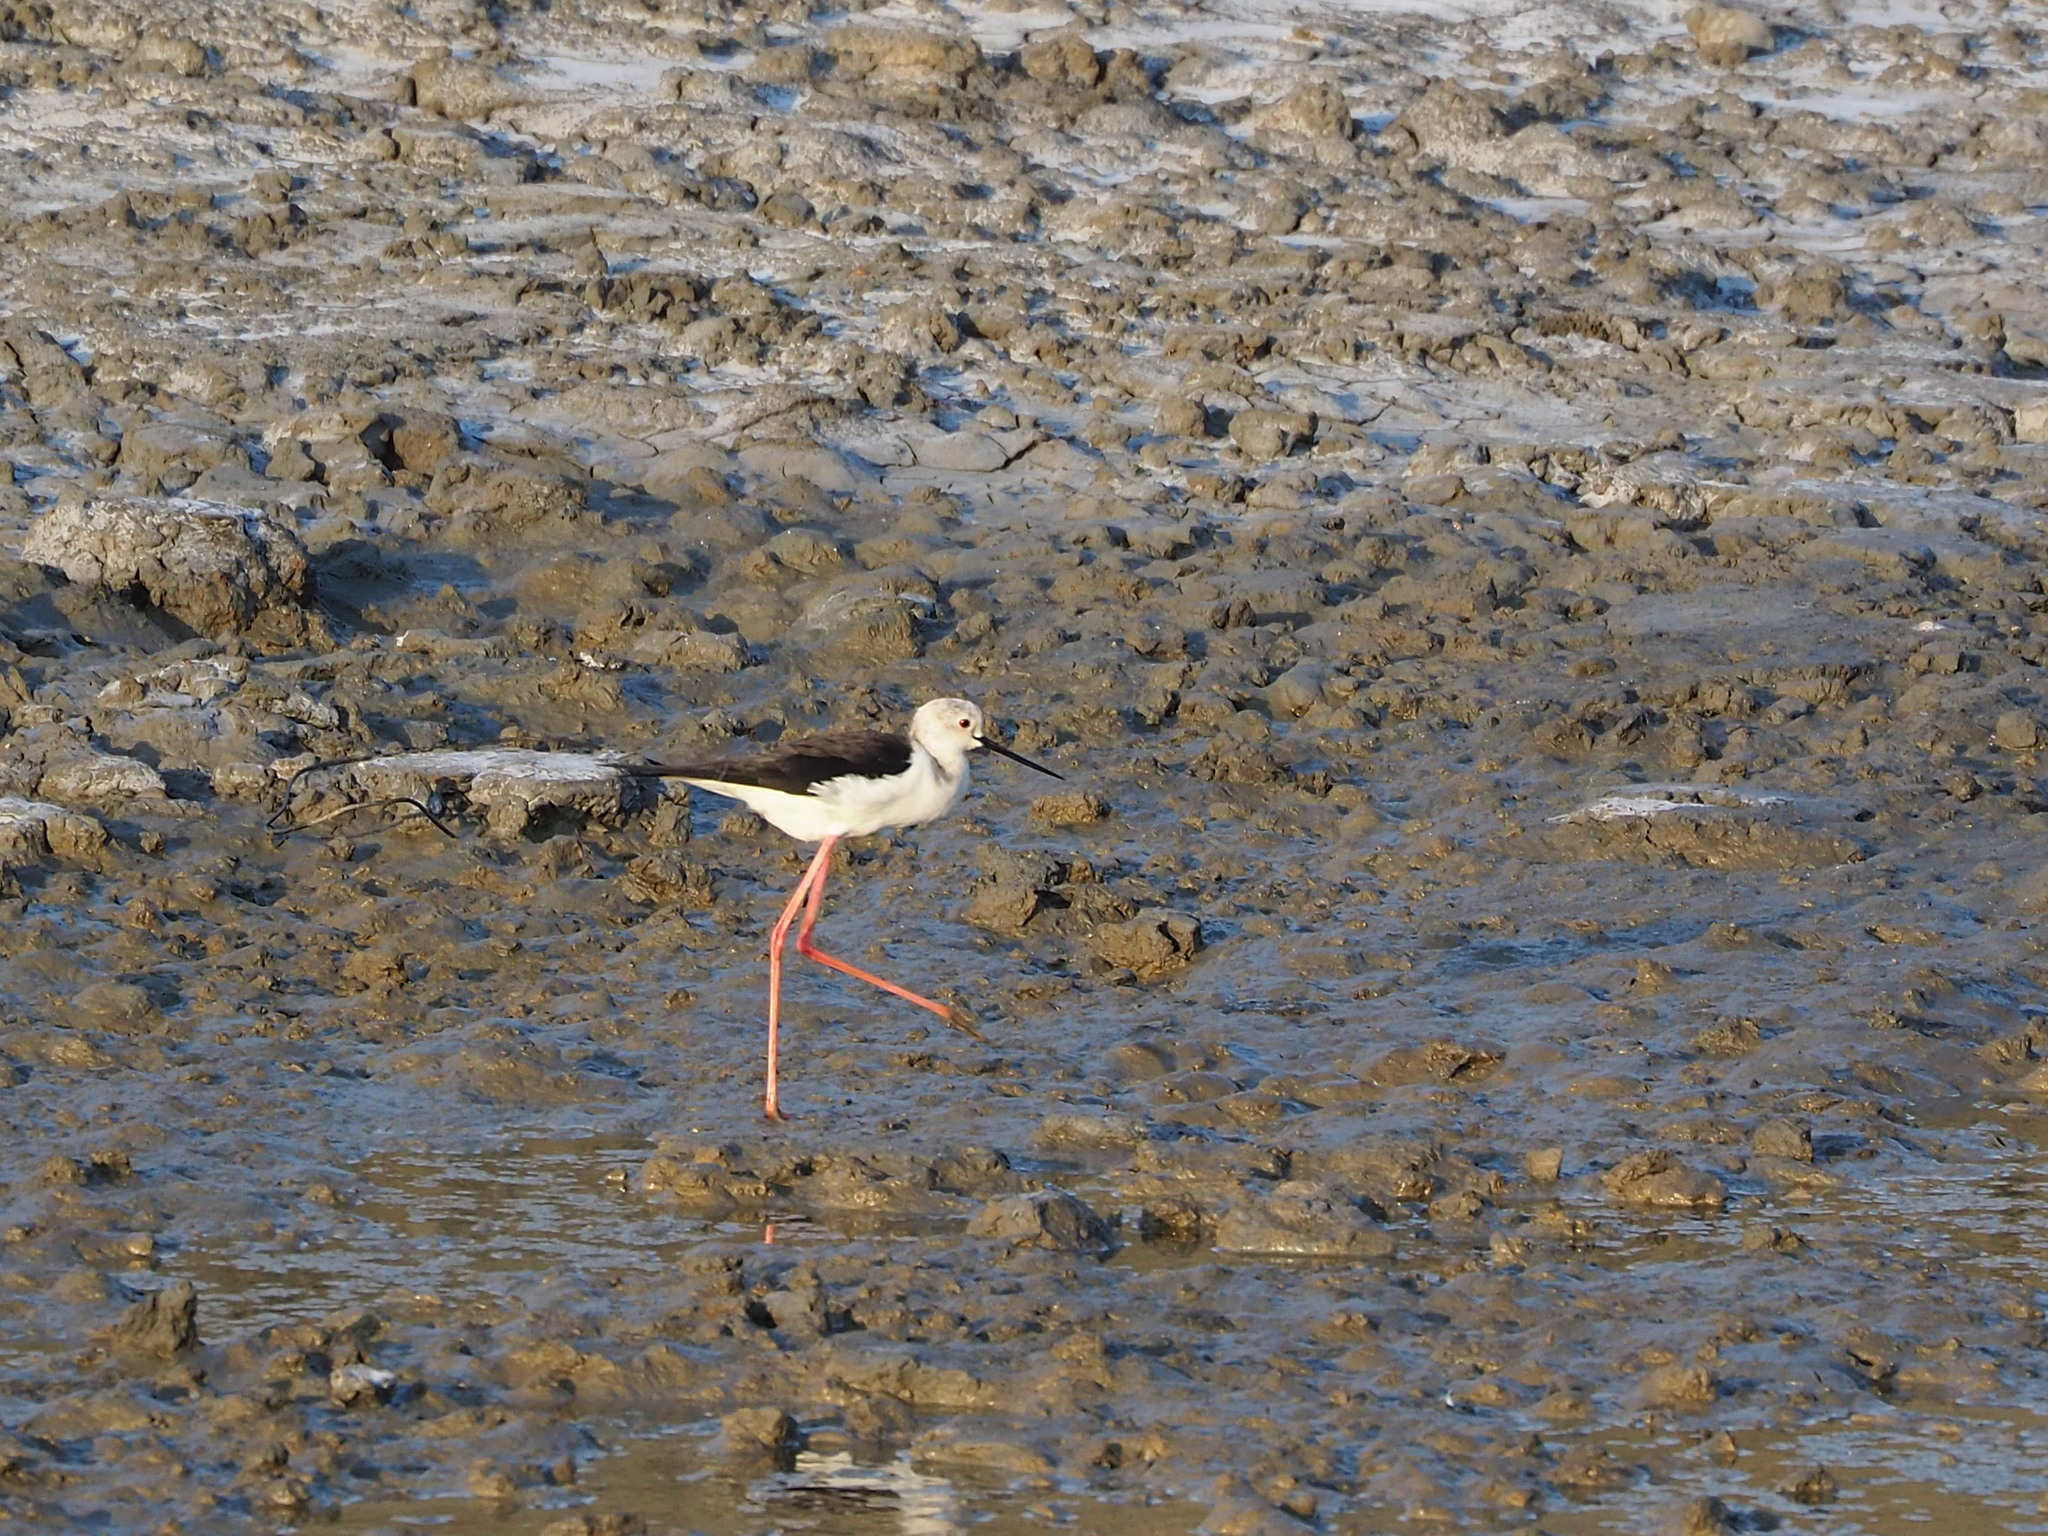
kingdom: Animalia
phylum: Chordata
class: Aves
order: Charadriiformes
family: Recurvirostridae
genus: Himantopus
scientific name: Himantopus himantopus
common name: Black-winged stilt
